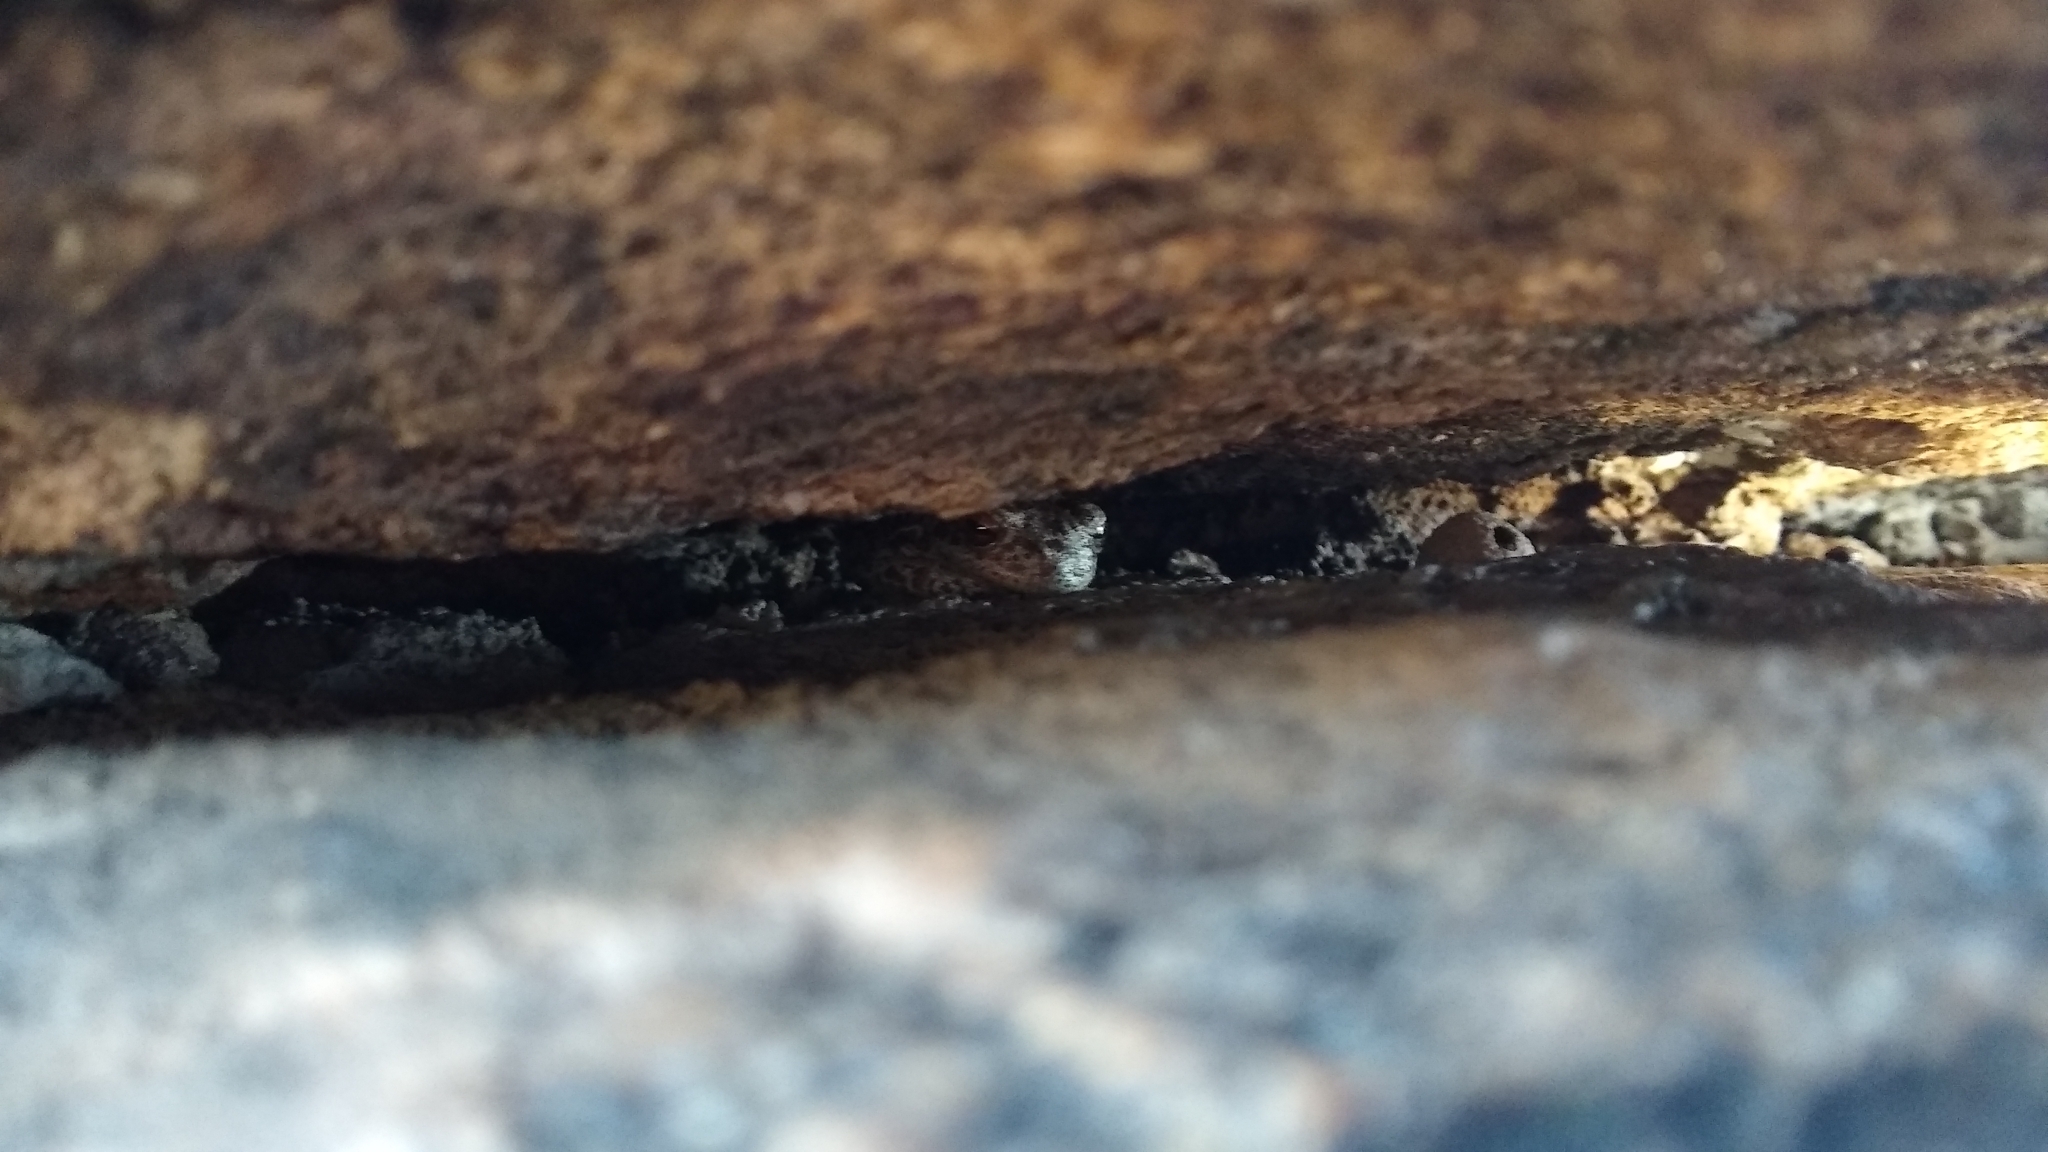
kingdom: Animalia
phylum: Chordata
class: Amphibia
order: Anura
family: Hylidae
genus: Boana
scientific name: Boana cordobae
